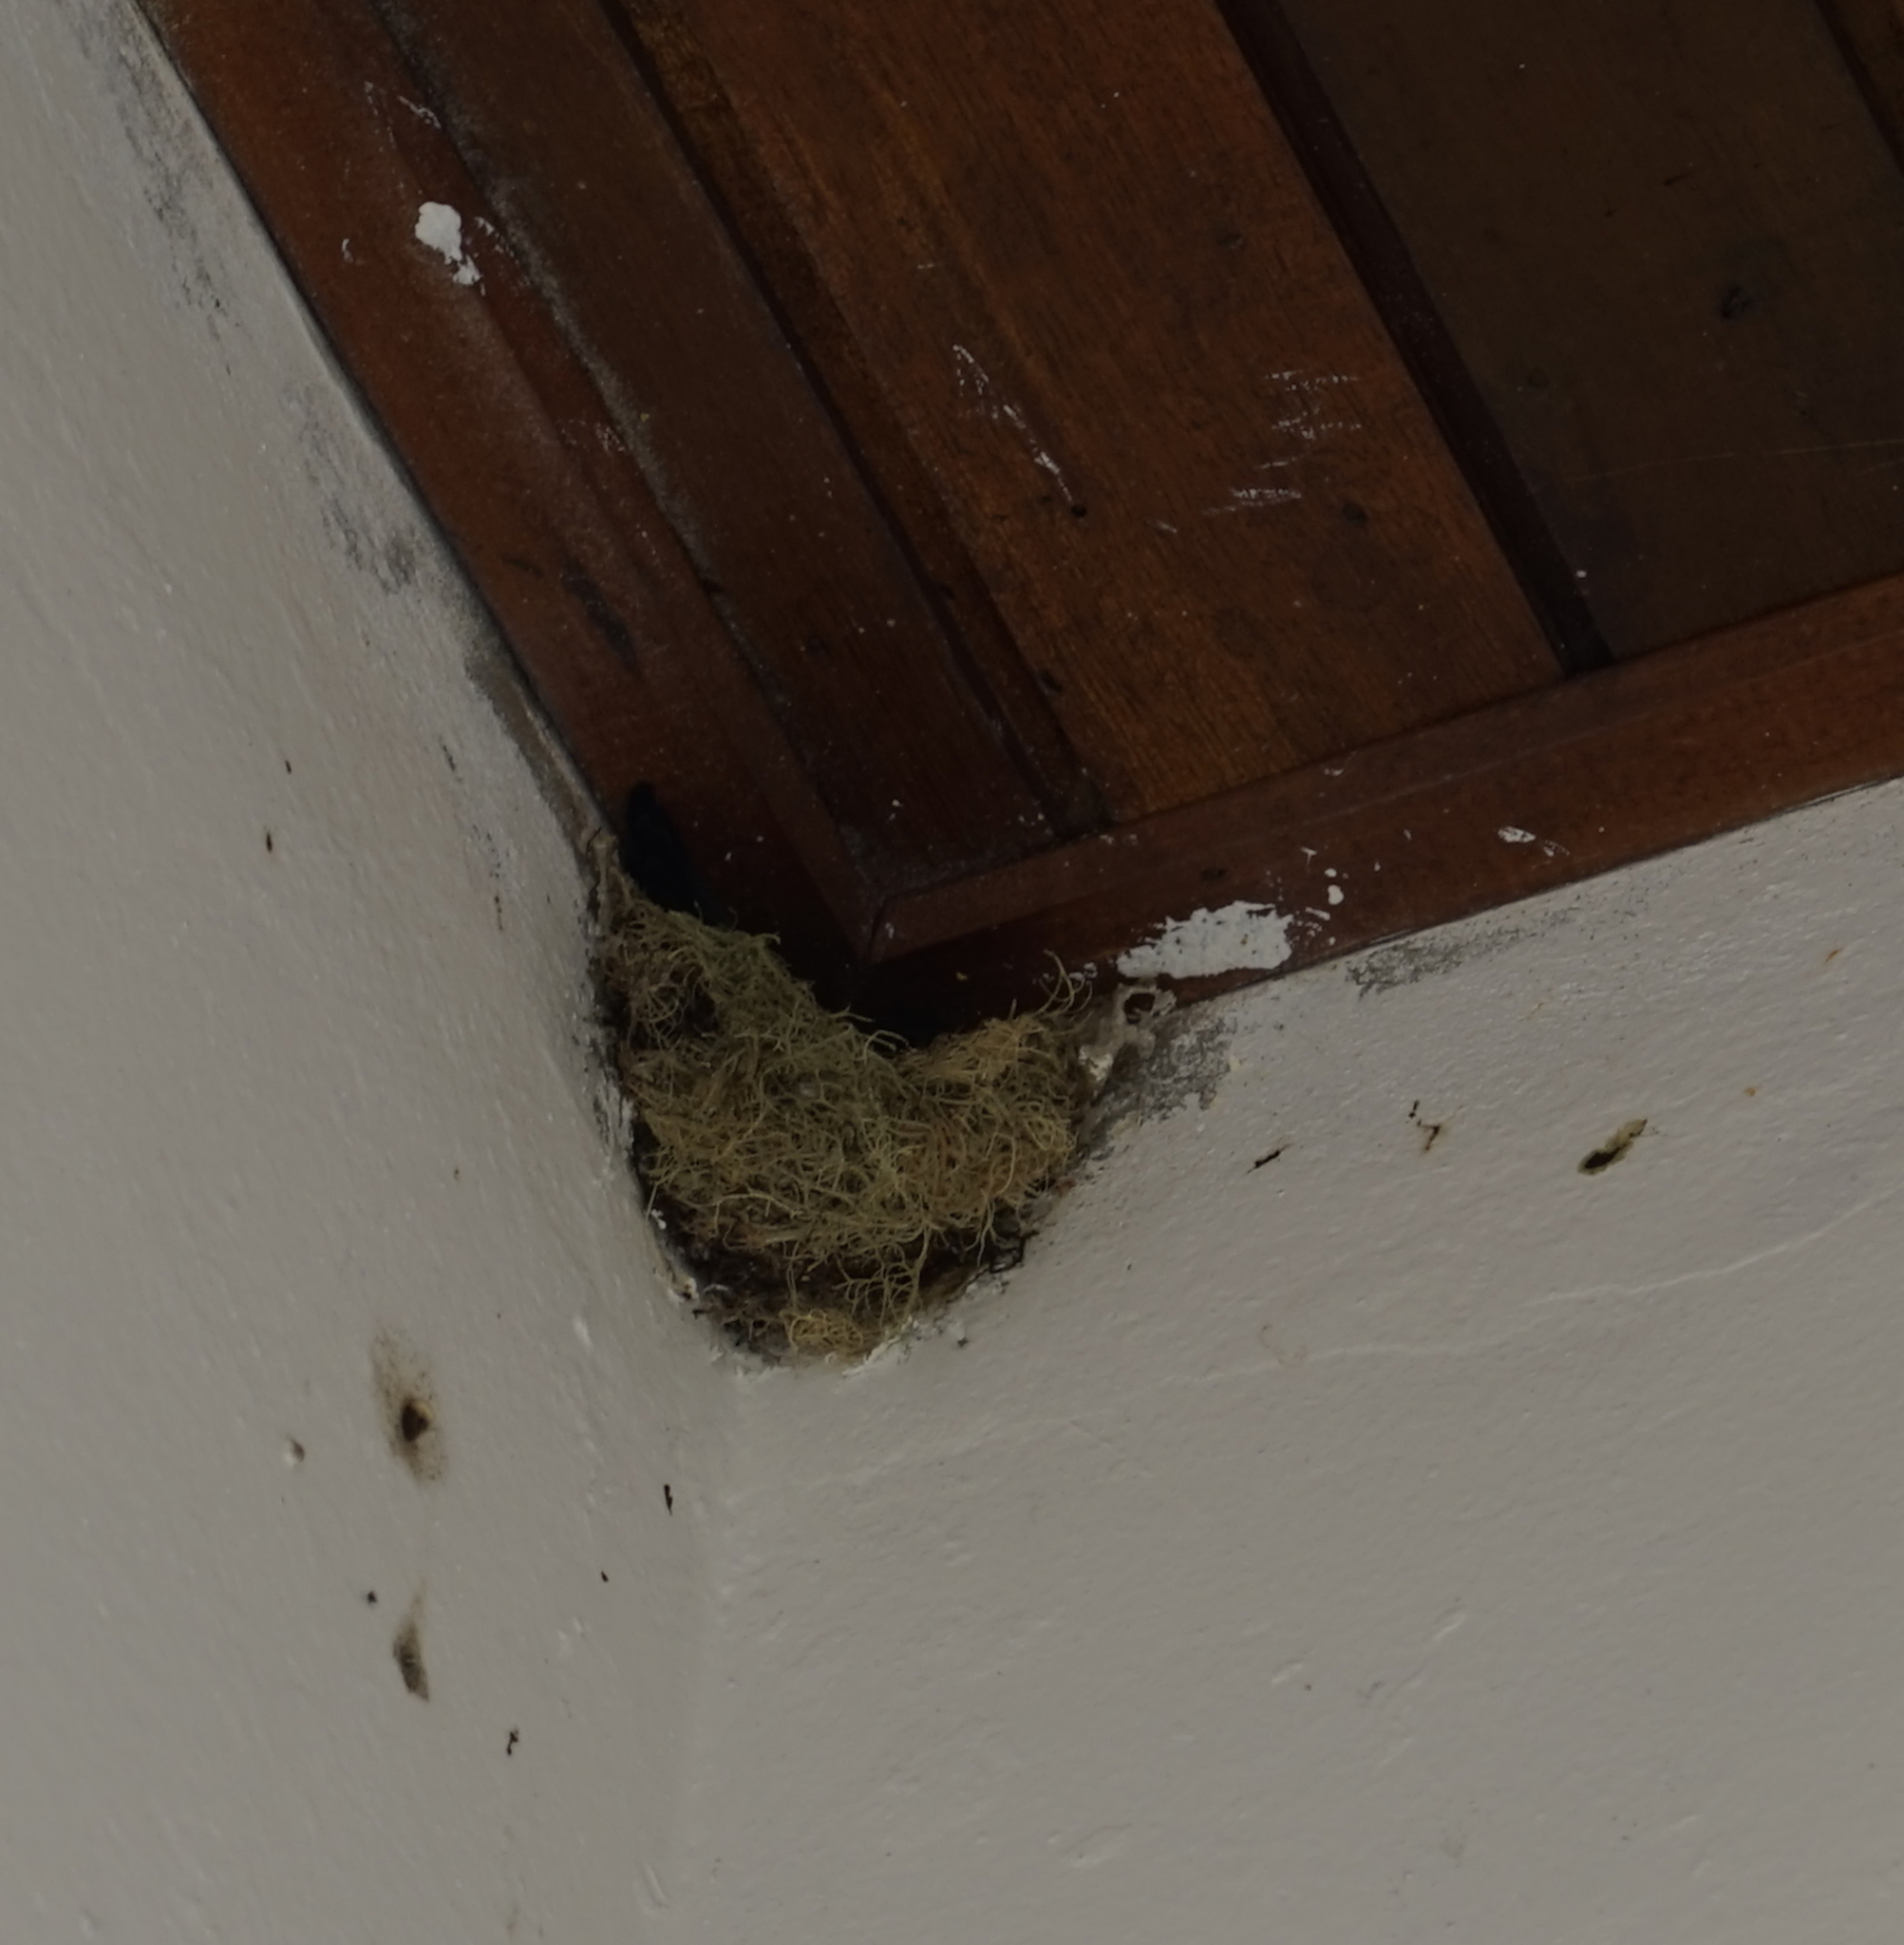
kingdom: Animalia
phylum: Chordata
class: Aves
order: Apodiformes
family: Apodidae
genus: Collocalia
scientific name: Collocalia affinis
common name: Plume-toed swiftlet
